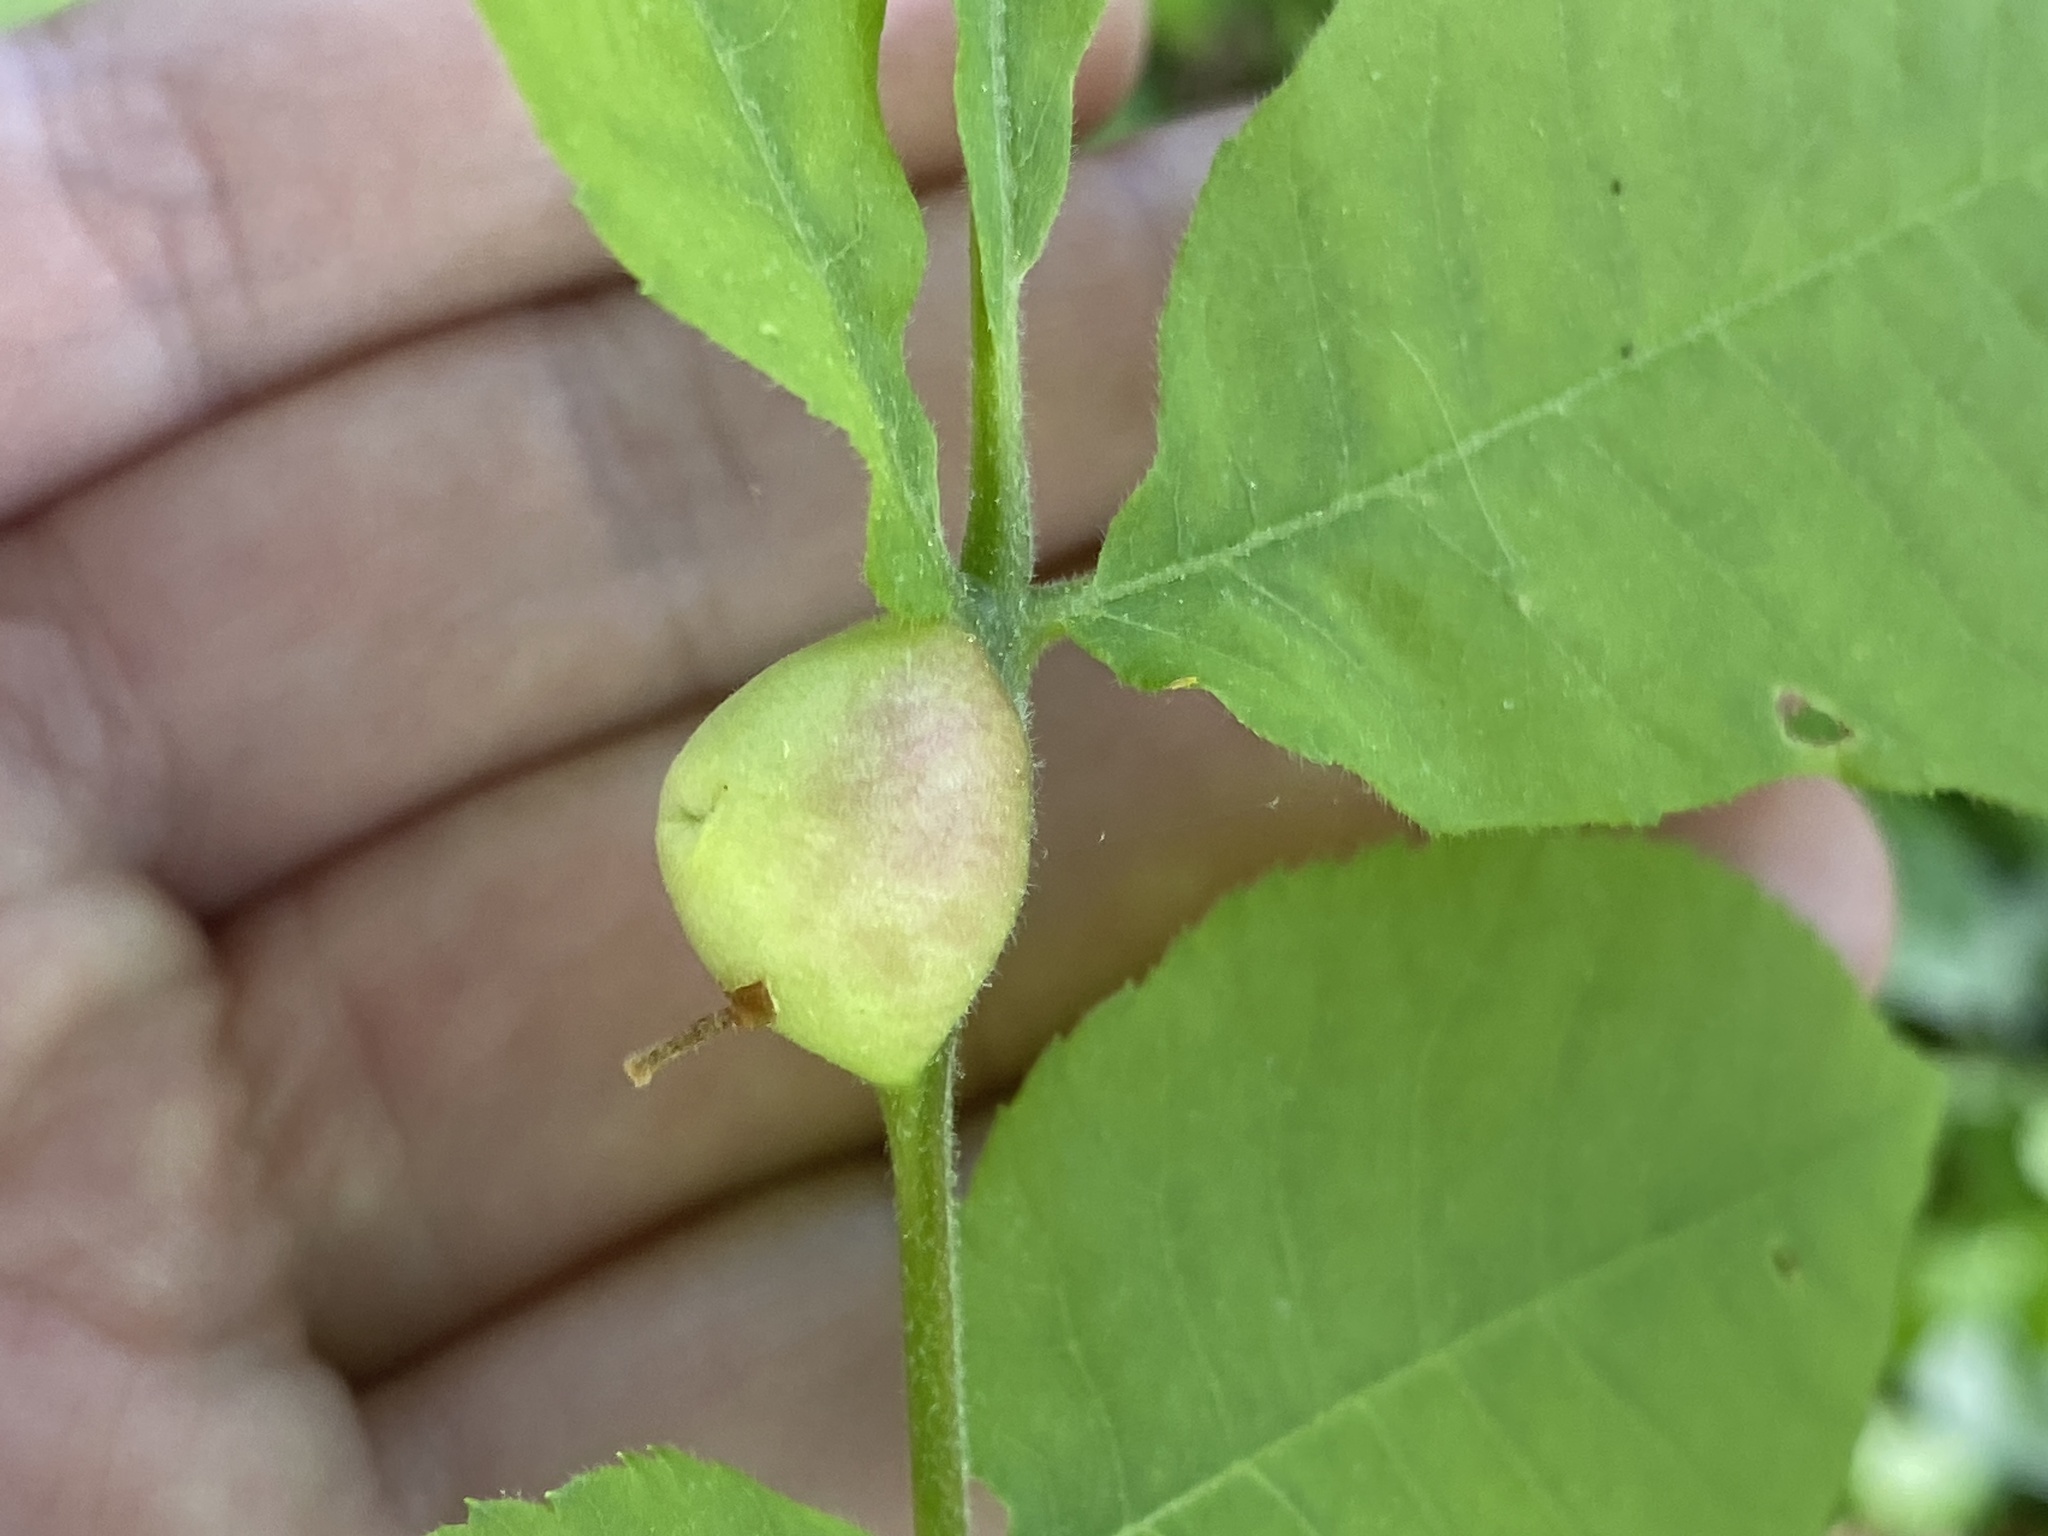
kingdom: Animalia
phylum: Arthropoda
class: Insecta
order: Hemiptera
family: Phylloxeridae
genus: Phylloxera
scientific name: Phylloxera
